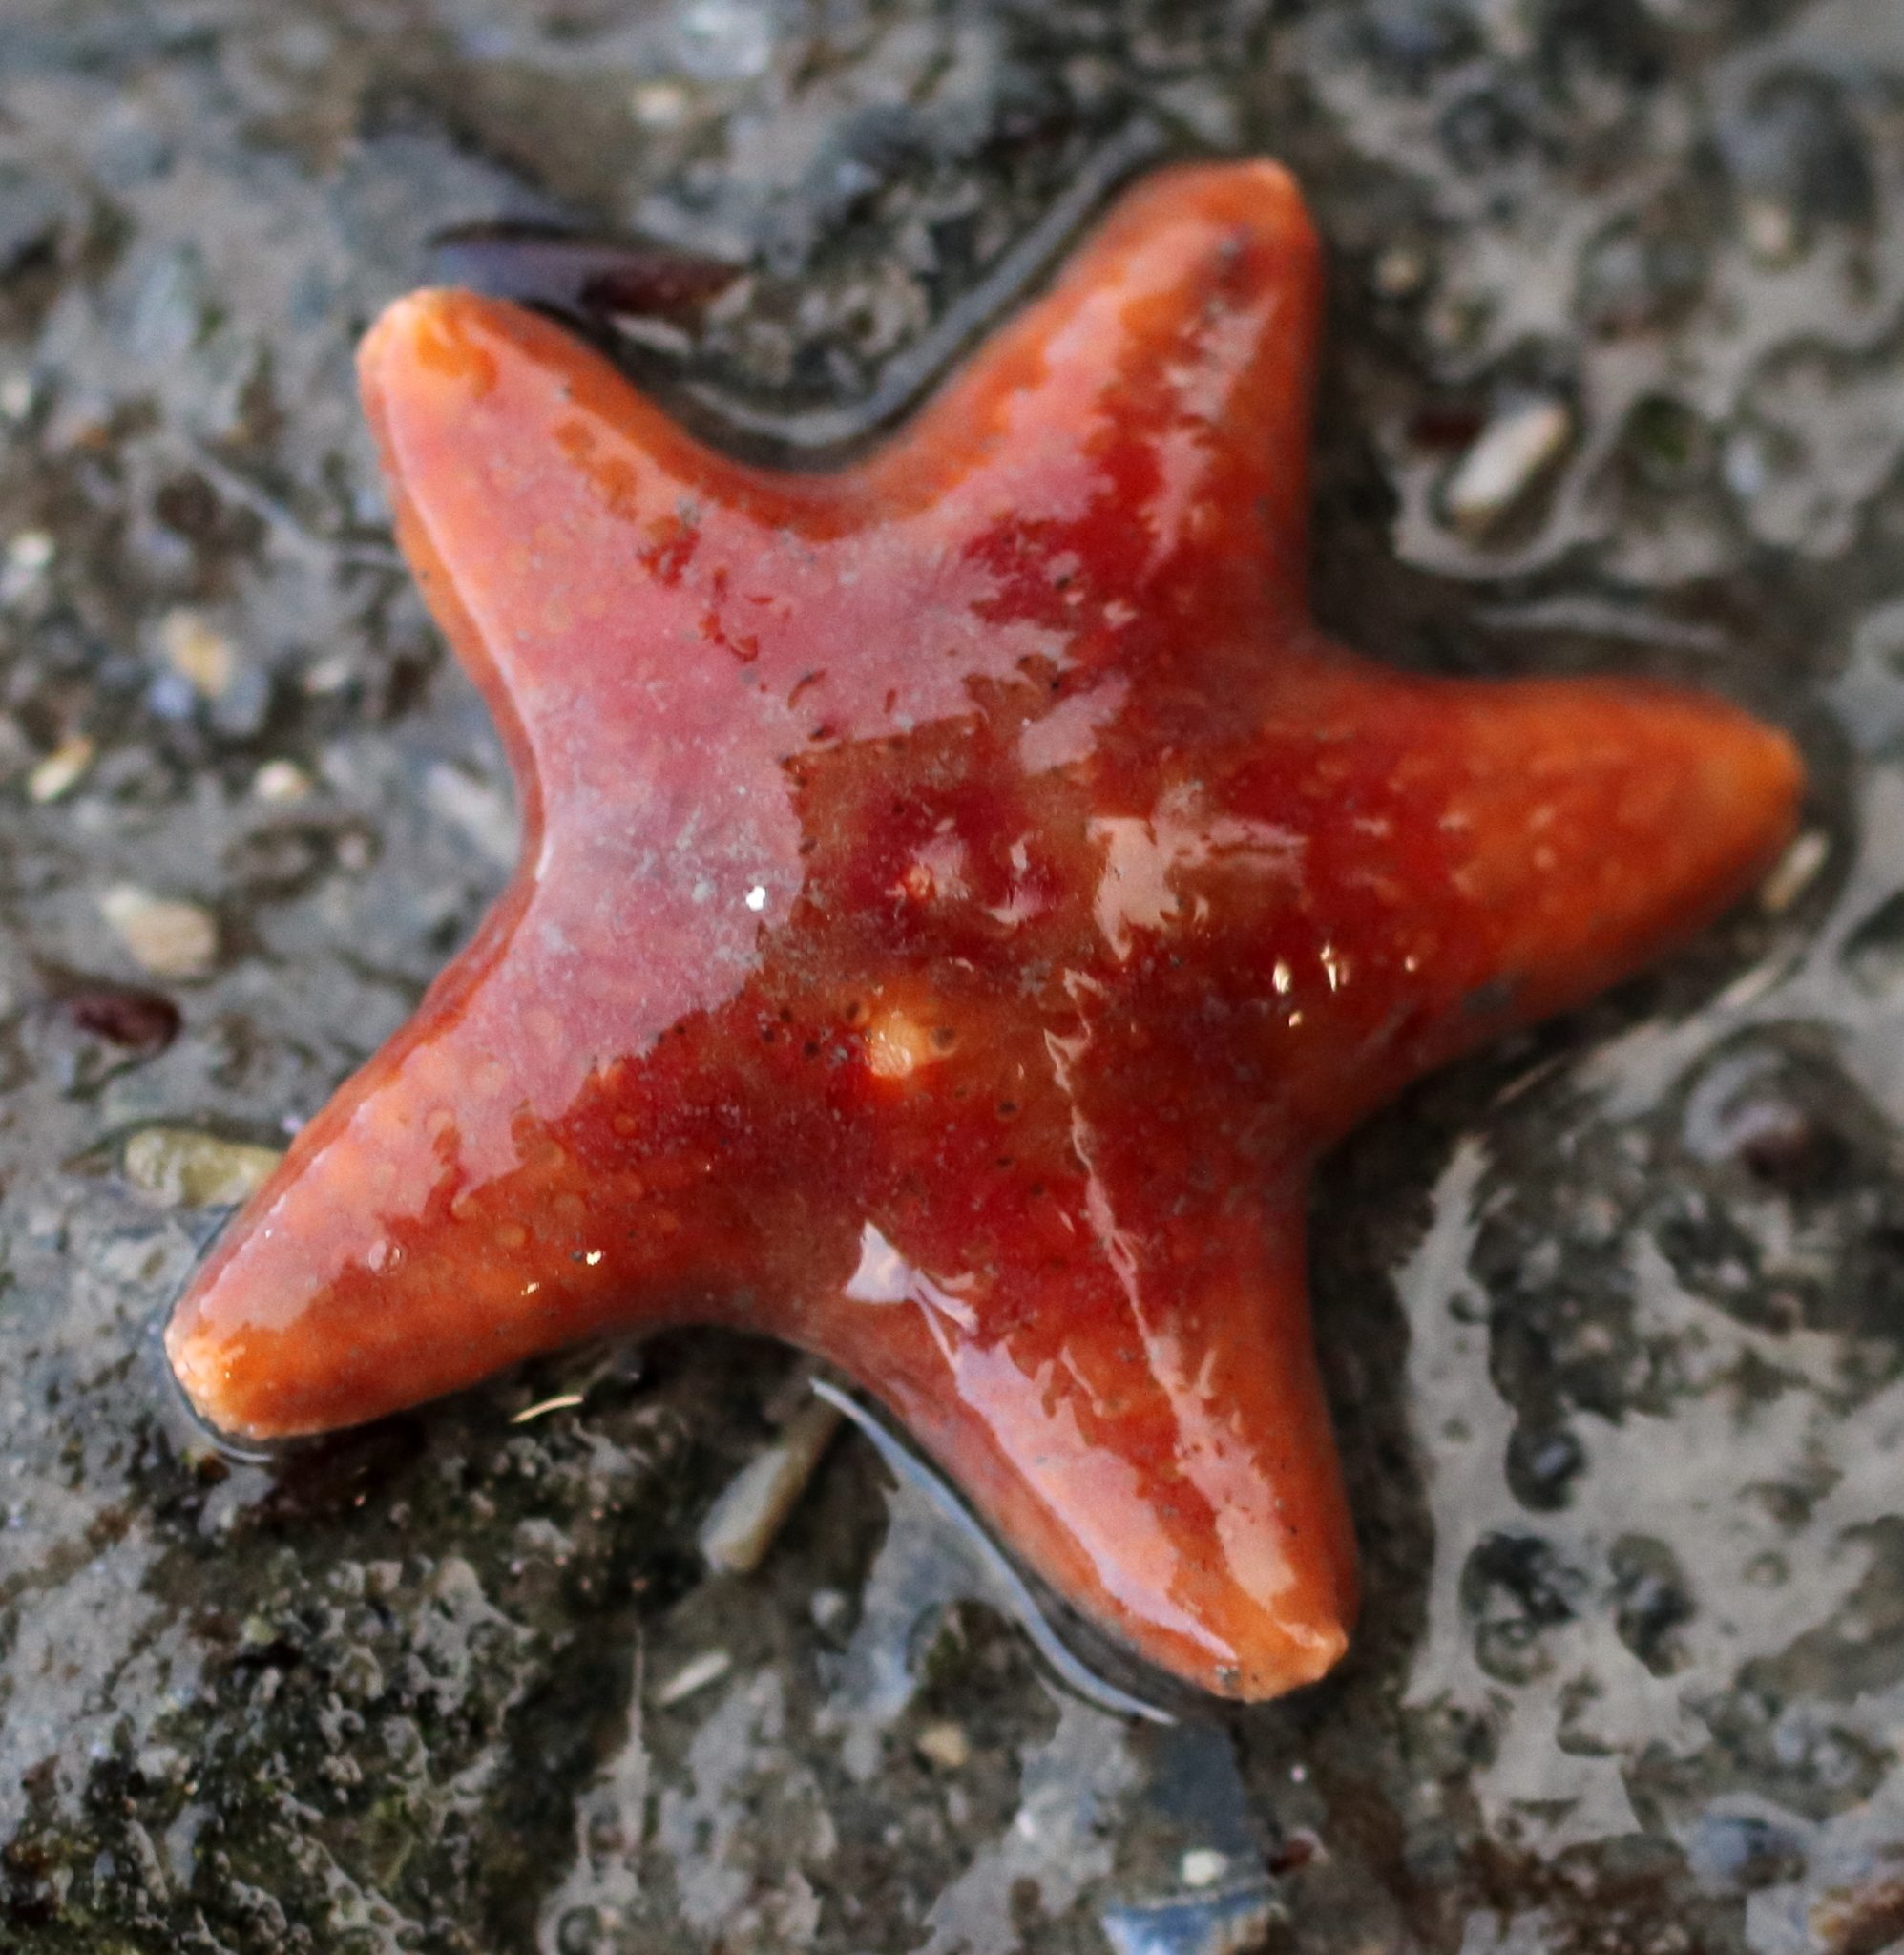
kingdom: Animalia
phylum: Echinodermata
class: Asteroidea
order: Valvatida
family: Asteropseidae
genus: Dermasterias
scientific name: Dermasterias imbricata
